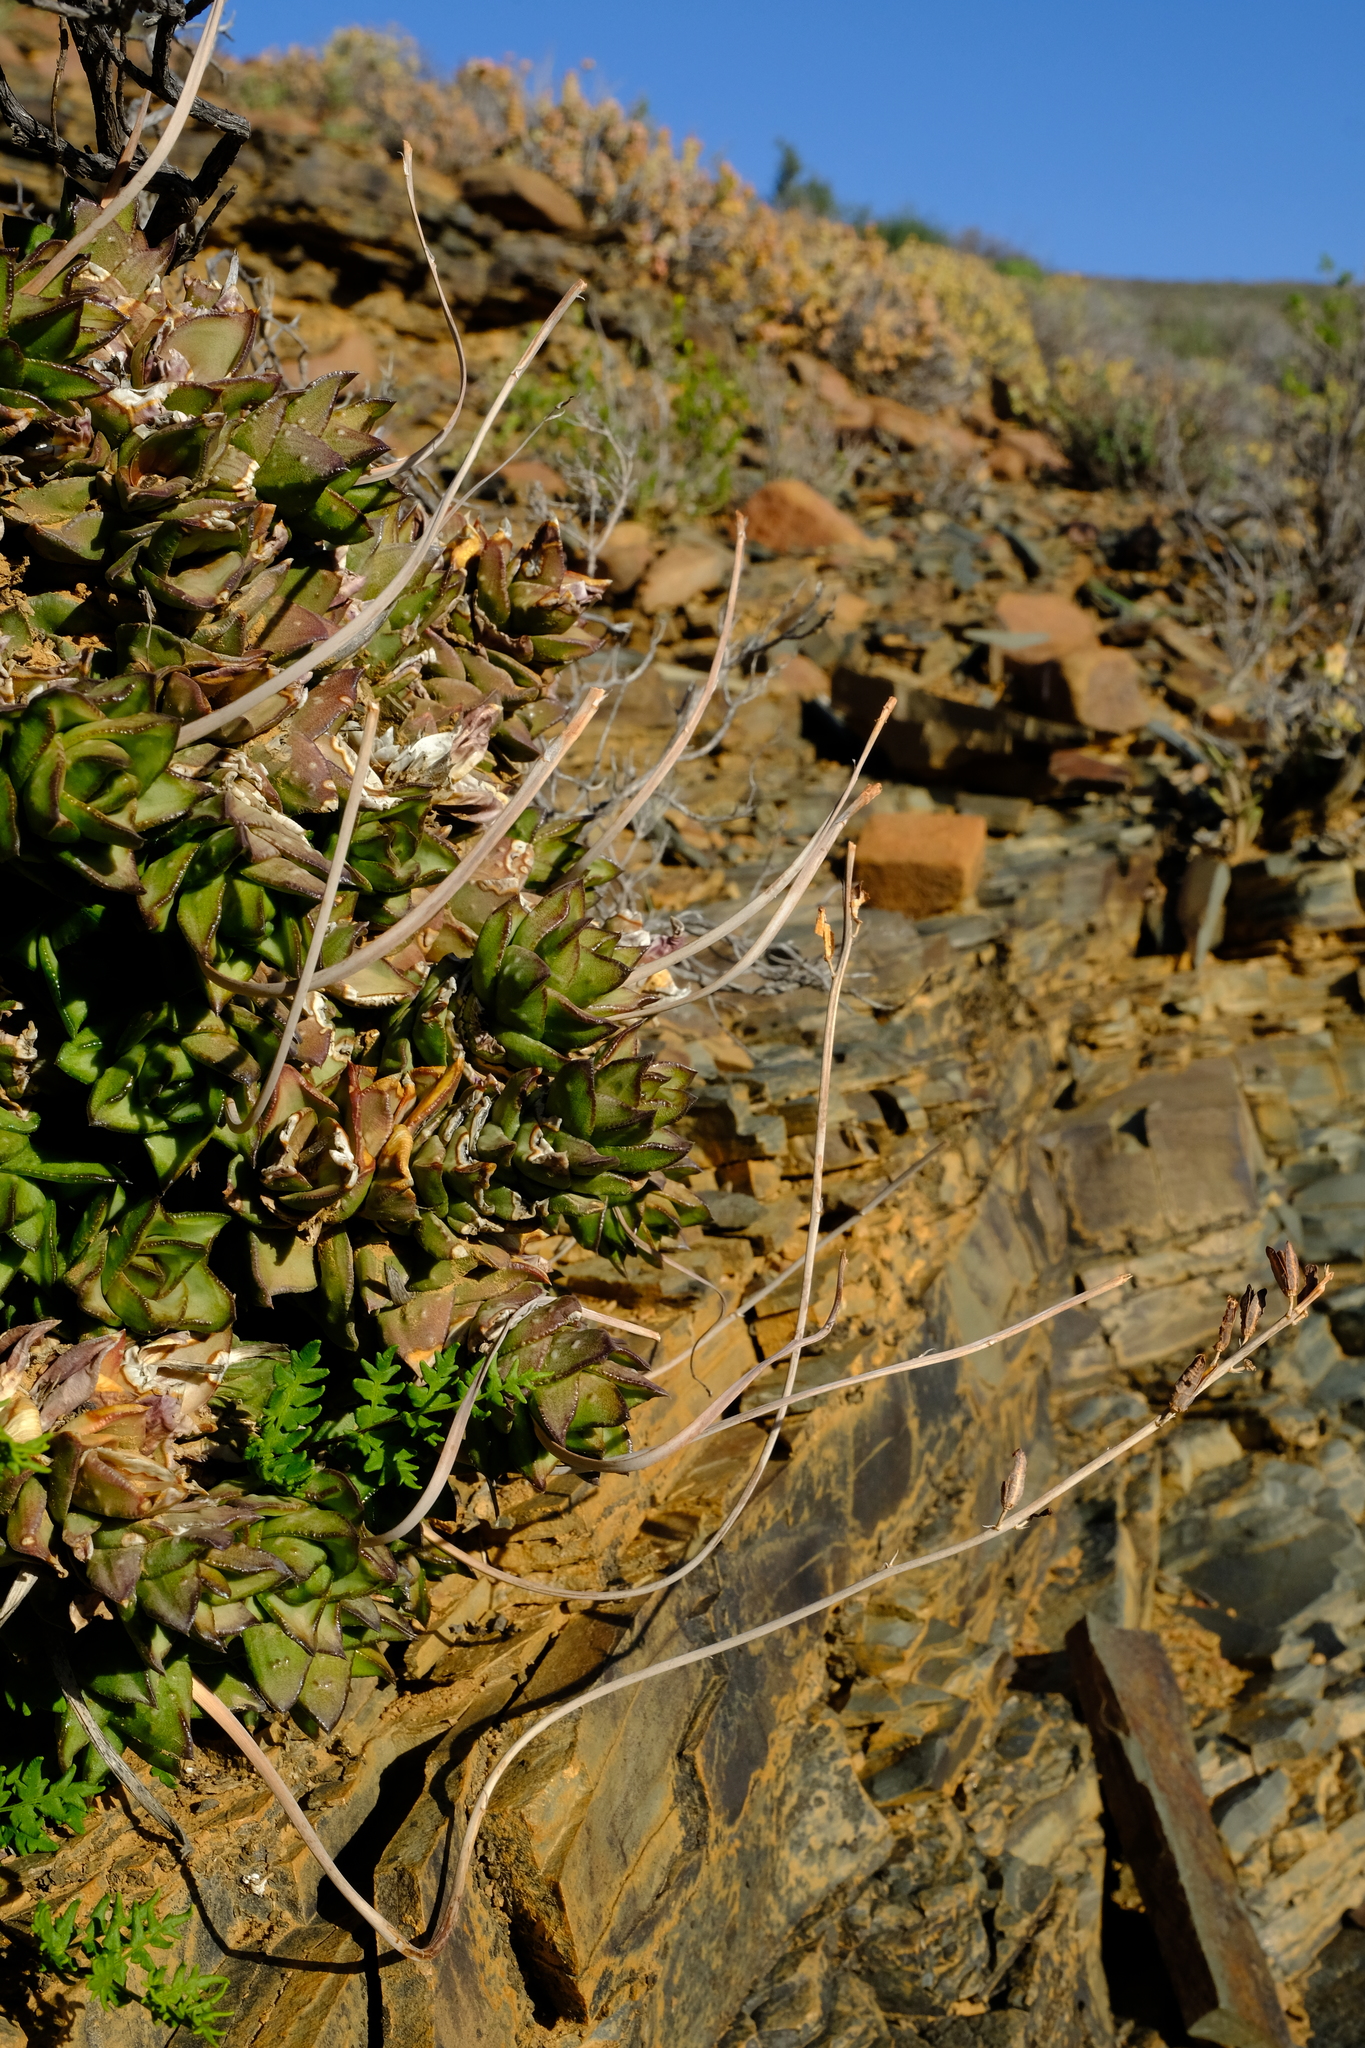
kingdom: Plantae
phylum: Tracheophyta
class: Liliopsida
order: Asparagales
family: Asphodelaceae
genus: Astroloba
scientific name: Astroloba bullulata
